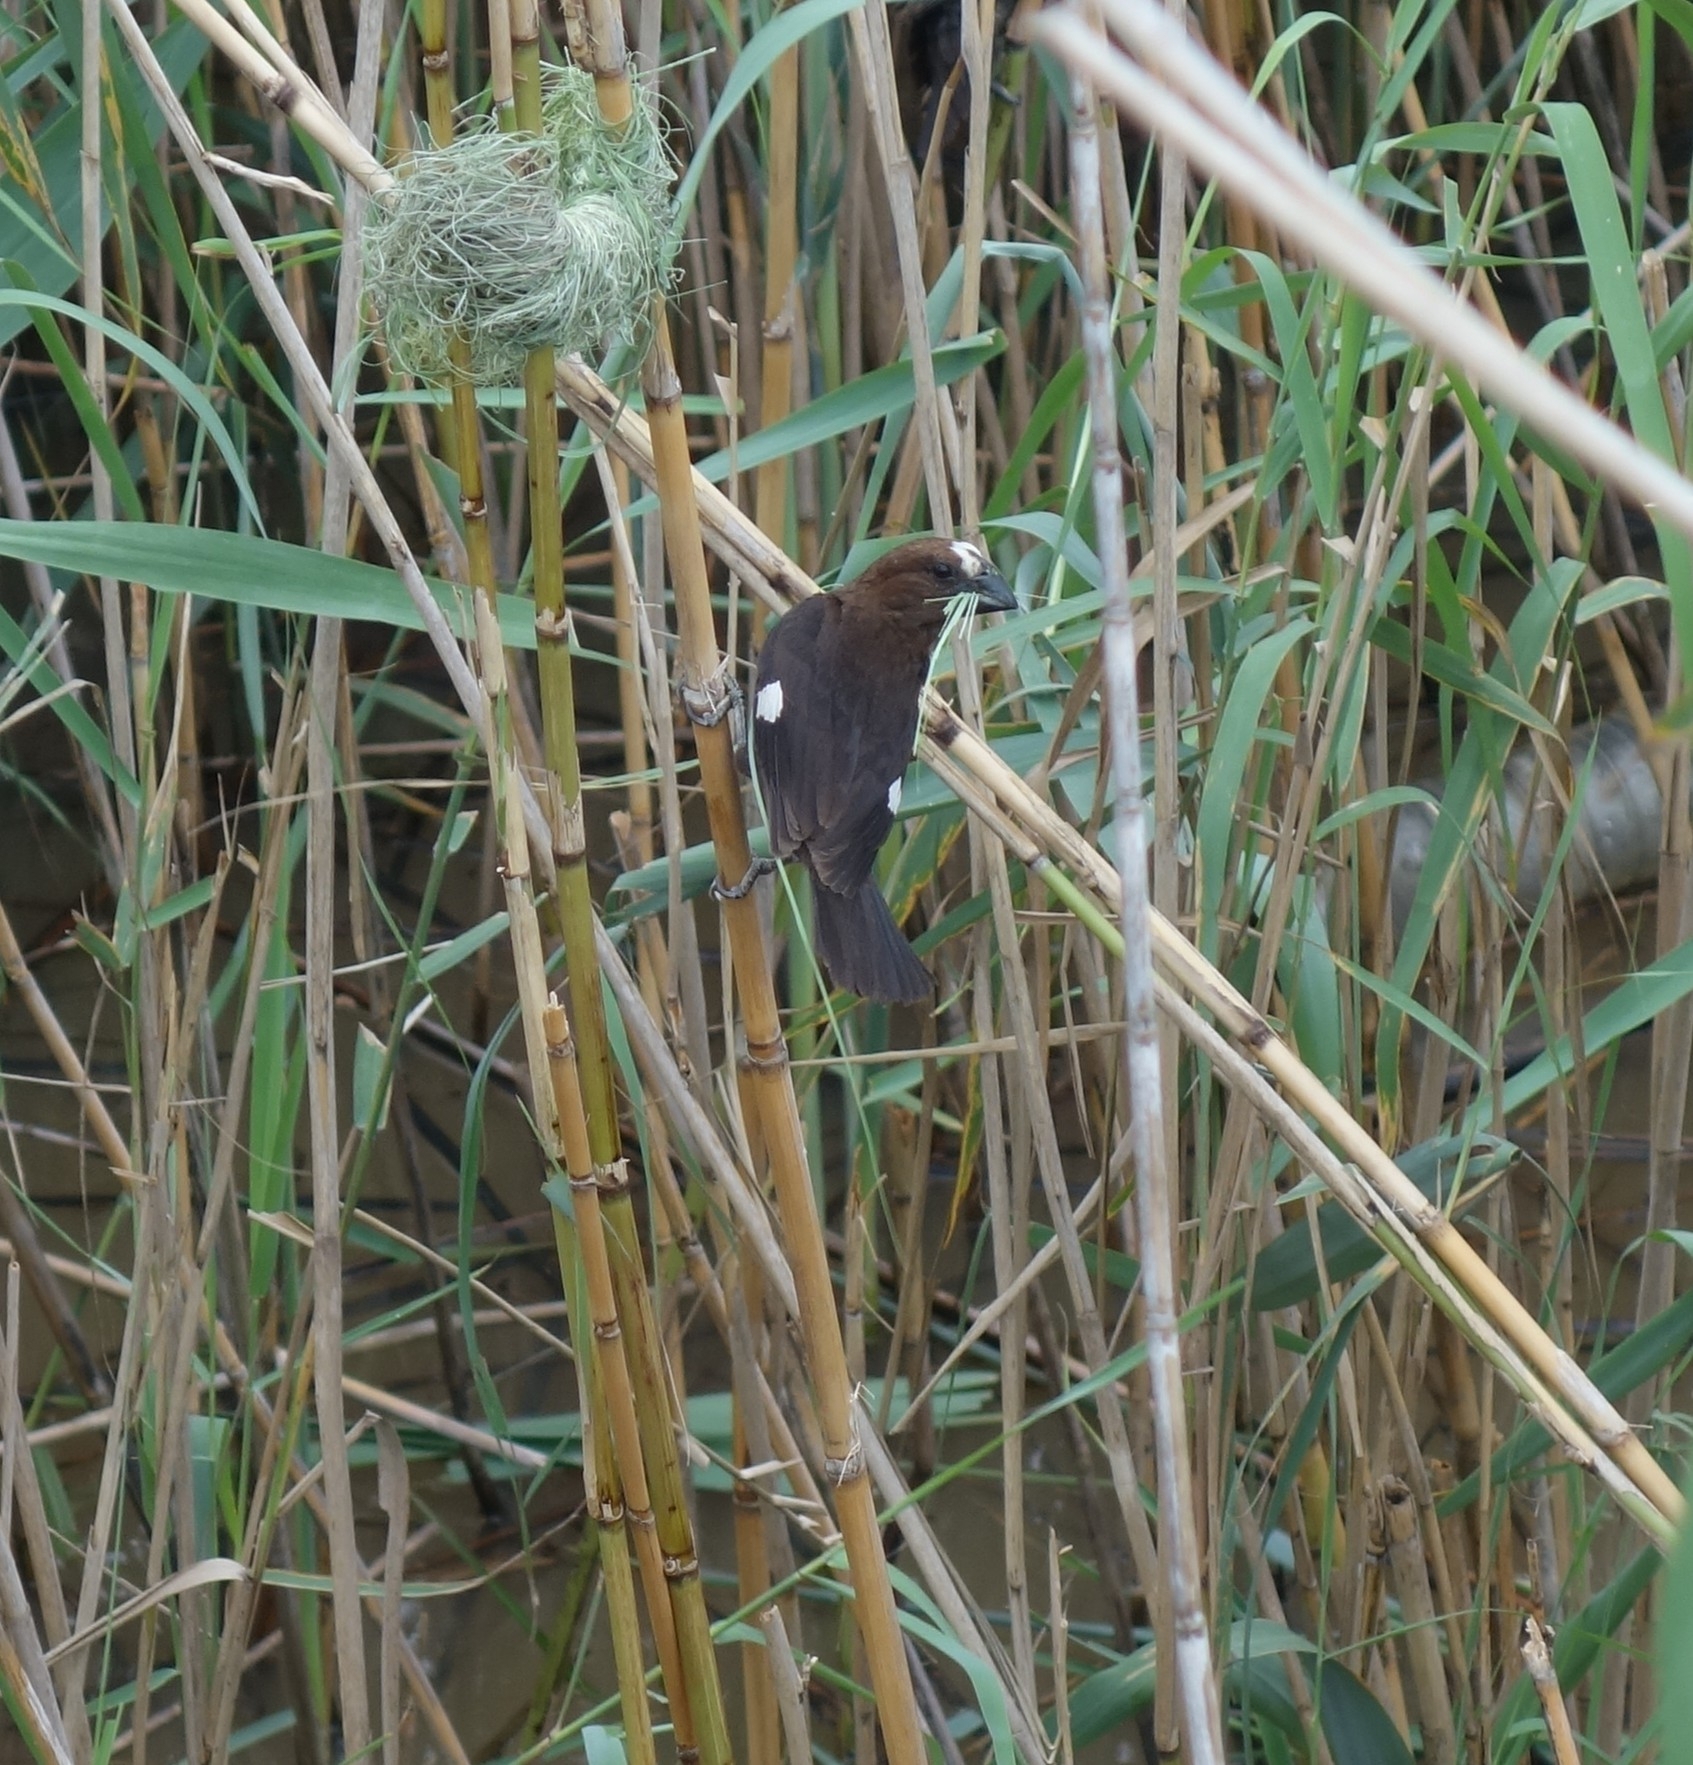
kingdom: Animalia
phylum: Chordata
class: Aves
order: Passeriformes
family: Ploceidae
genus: Amblyospiza
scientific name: Amblyospiza albifrons
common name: Thick-billed weaver
